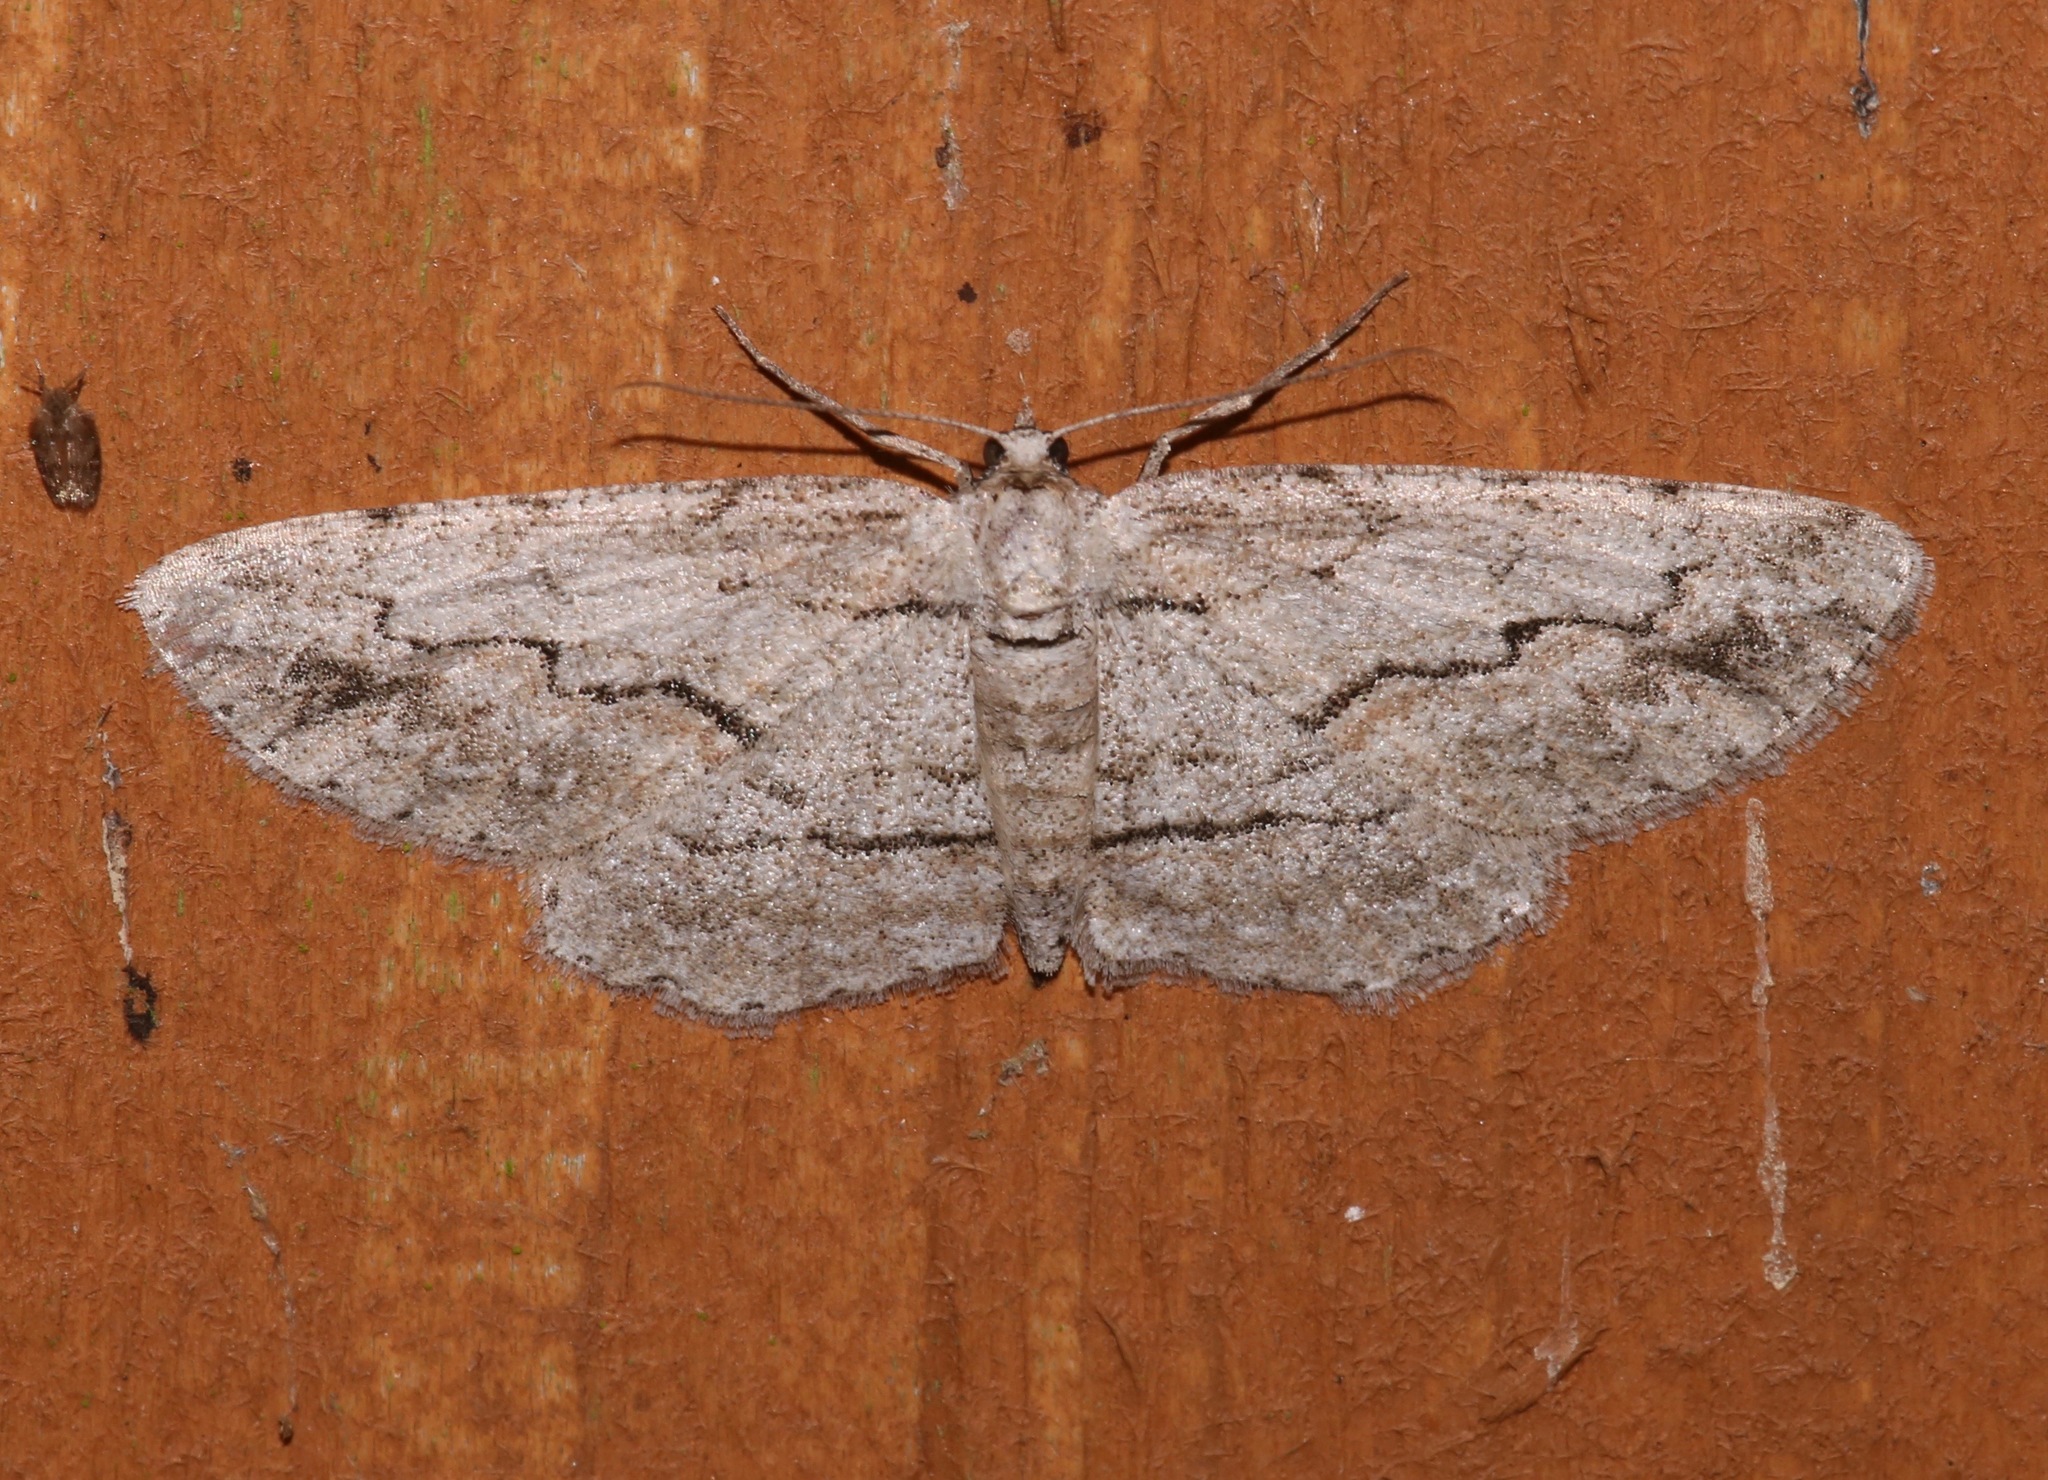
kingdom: Animalia
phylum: Arthropoda
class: Insecta
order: Lepidoptera
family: Geometridae
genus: Iridopsis
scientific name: Iridopsis pergracilis
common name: Cypress looper
